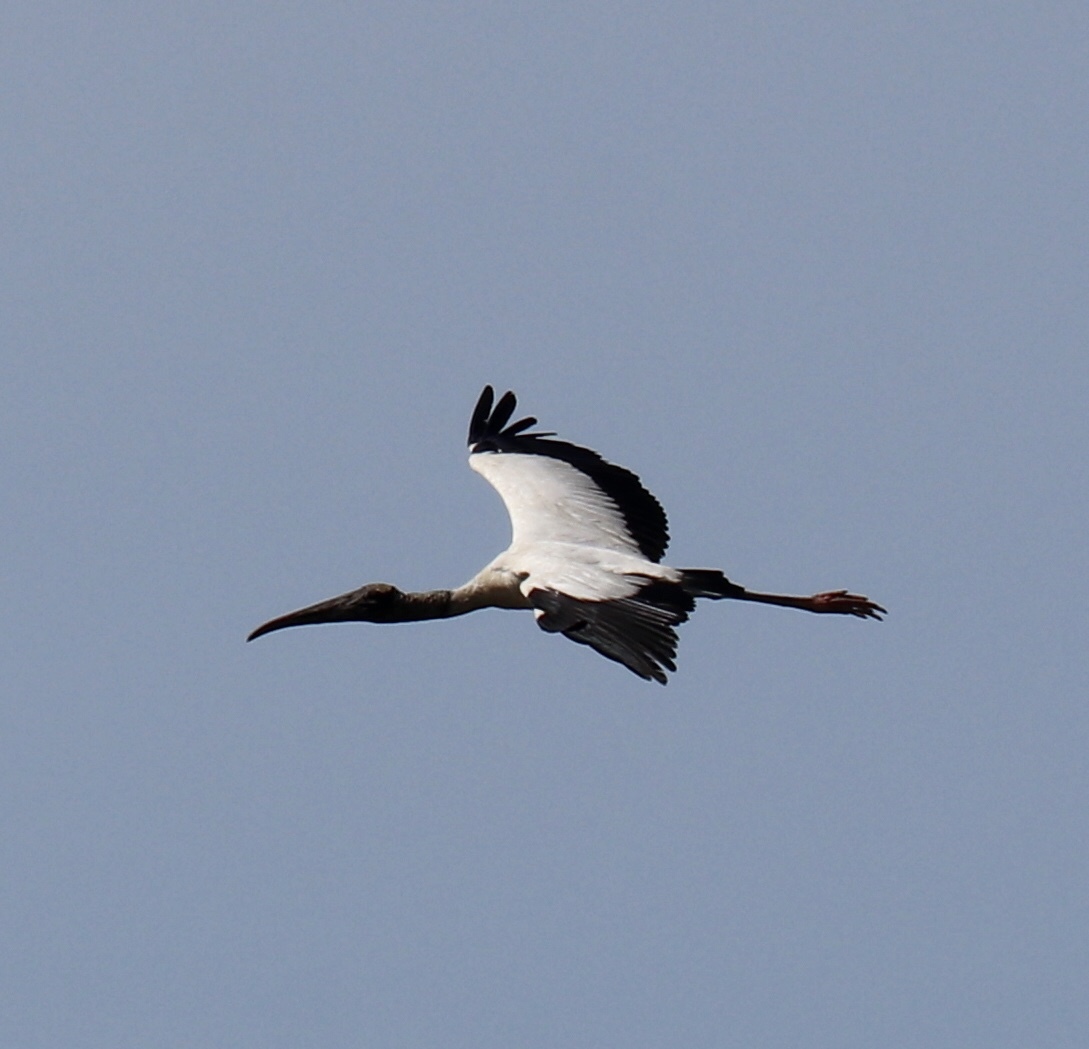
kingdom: Animalia
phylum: Chordata
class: Aves
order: Ciconiiformes
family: Ciconiidae
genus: Mycteria
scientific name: Mycteria americana
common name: Wood stork
